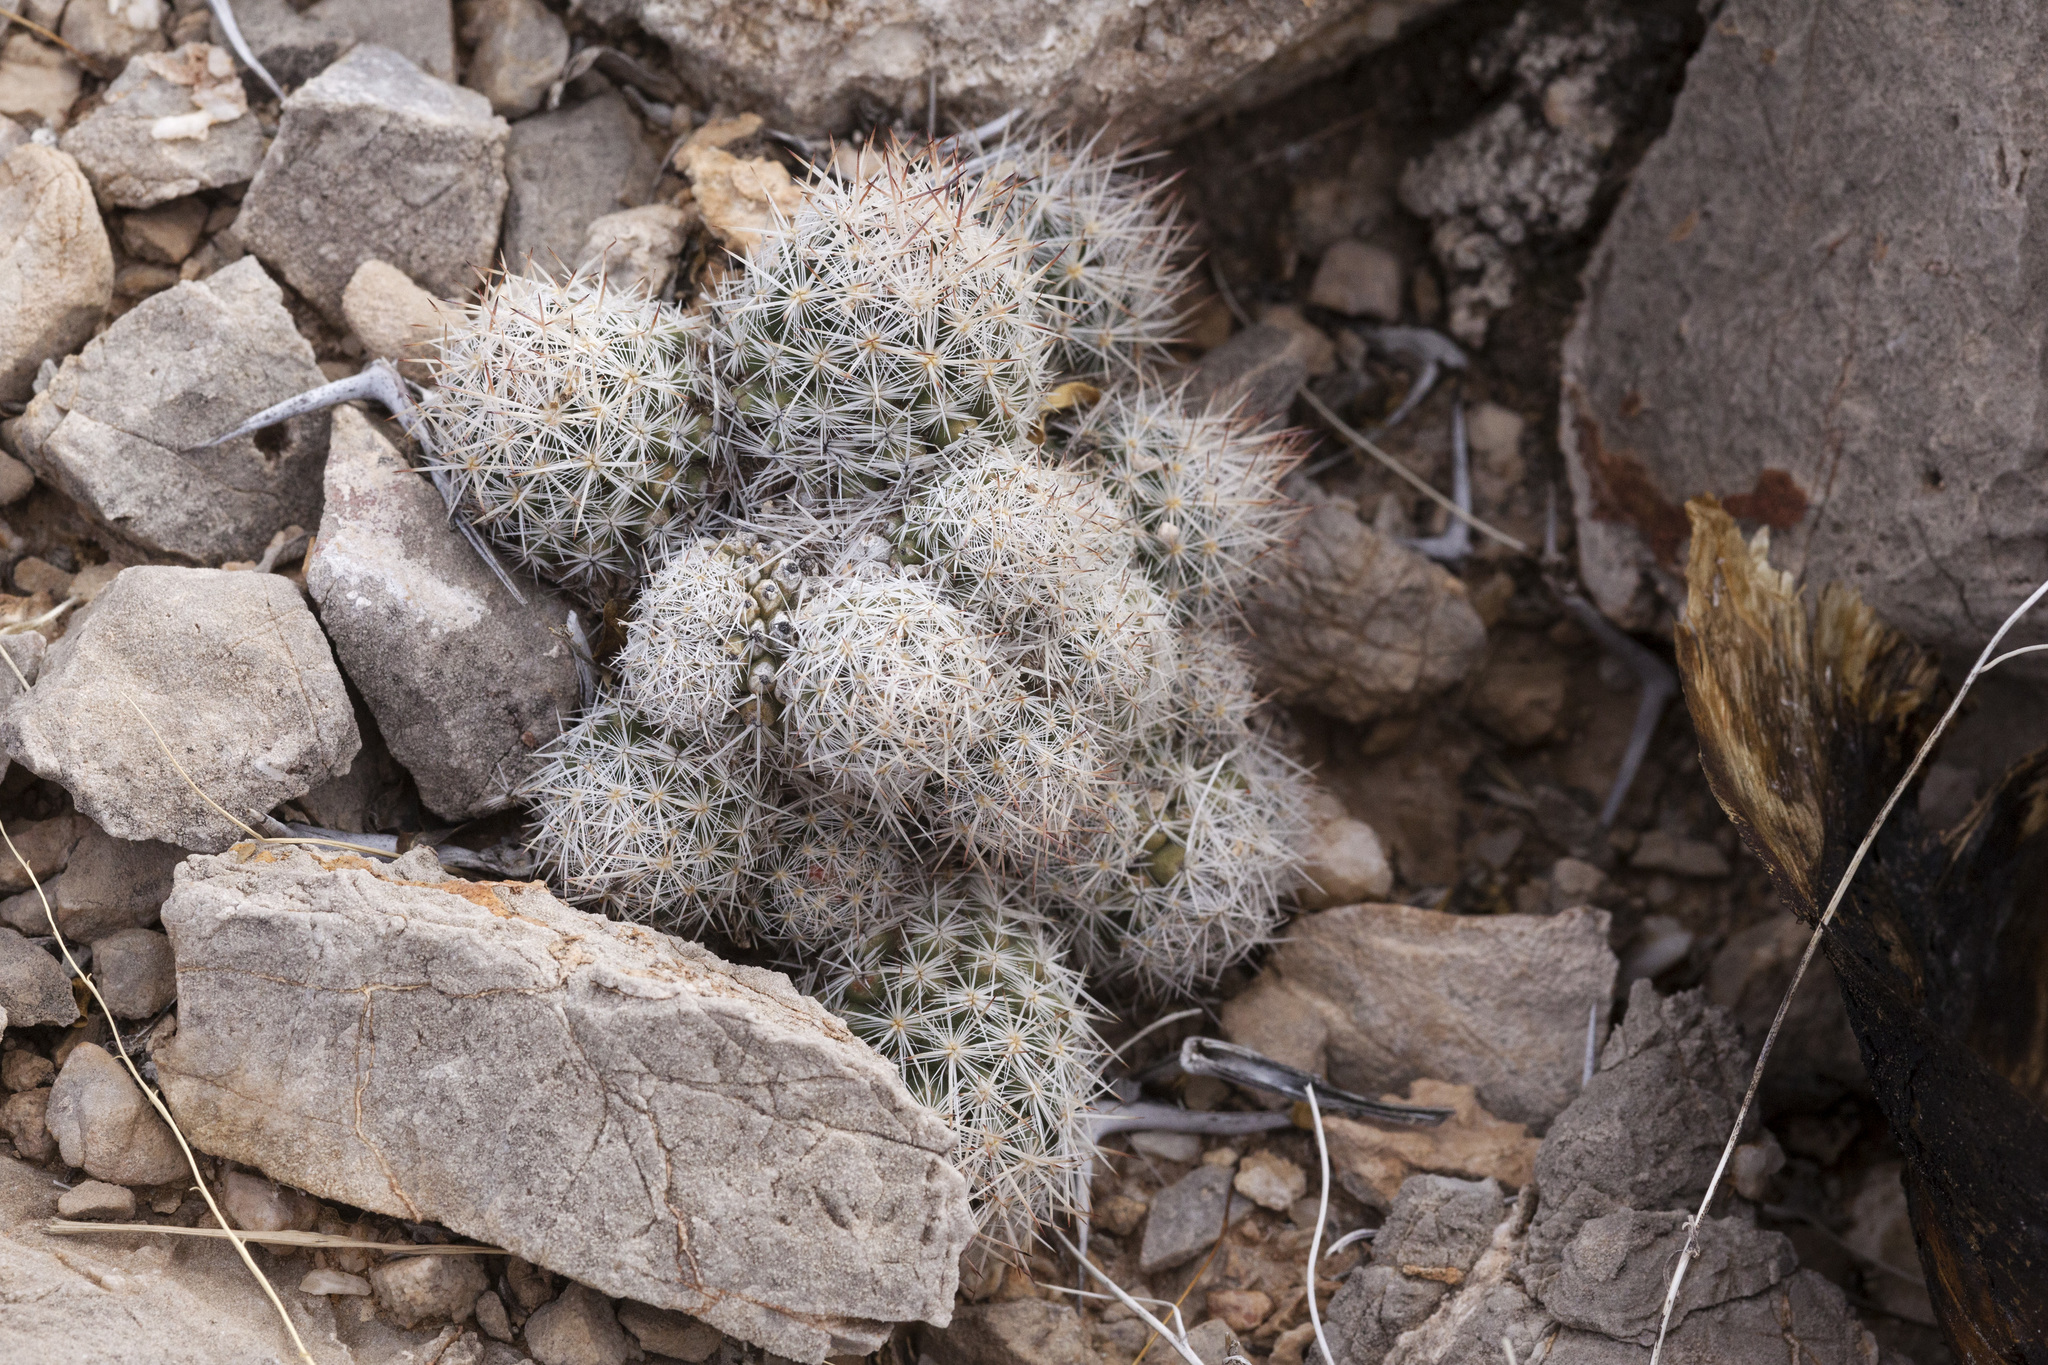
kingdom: Plantae
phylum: Tracheophyta
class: Magnoliopsida
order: Caryophyllales
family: Cactaceae
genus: Pelecyphora
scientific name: Pelecyphora sneedii
